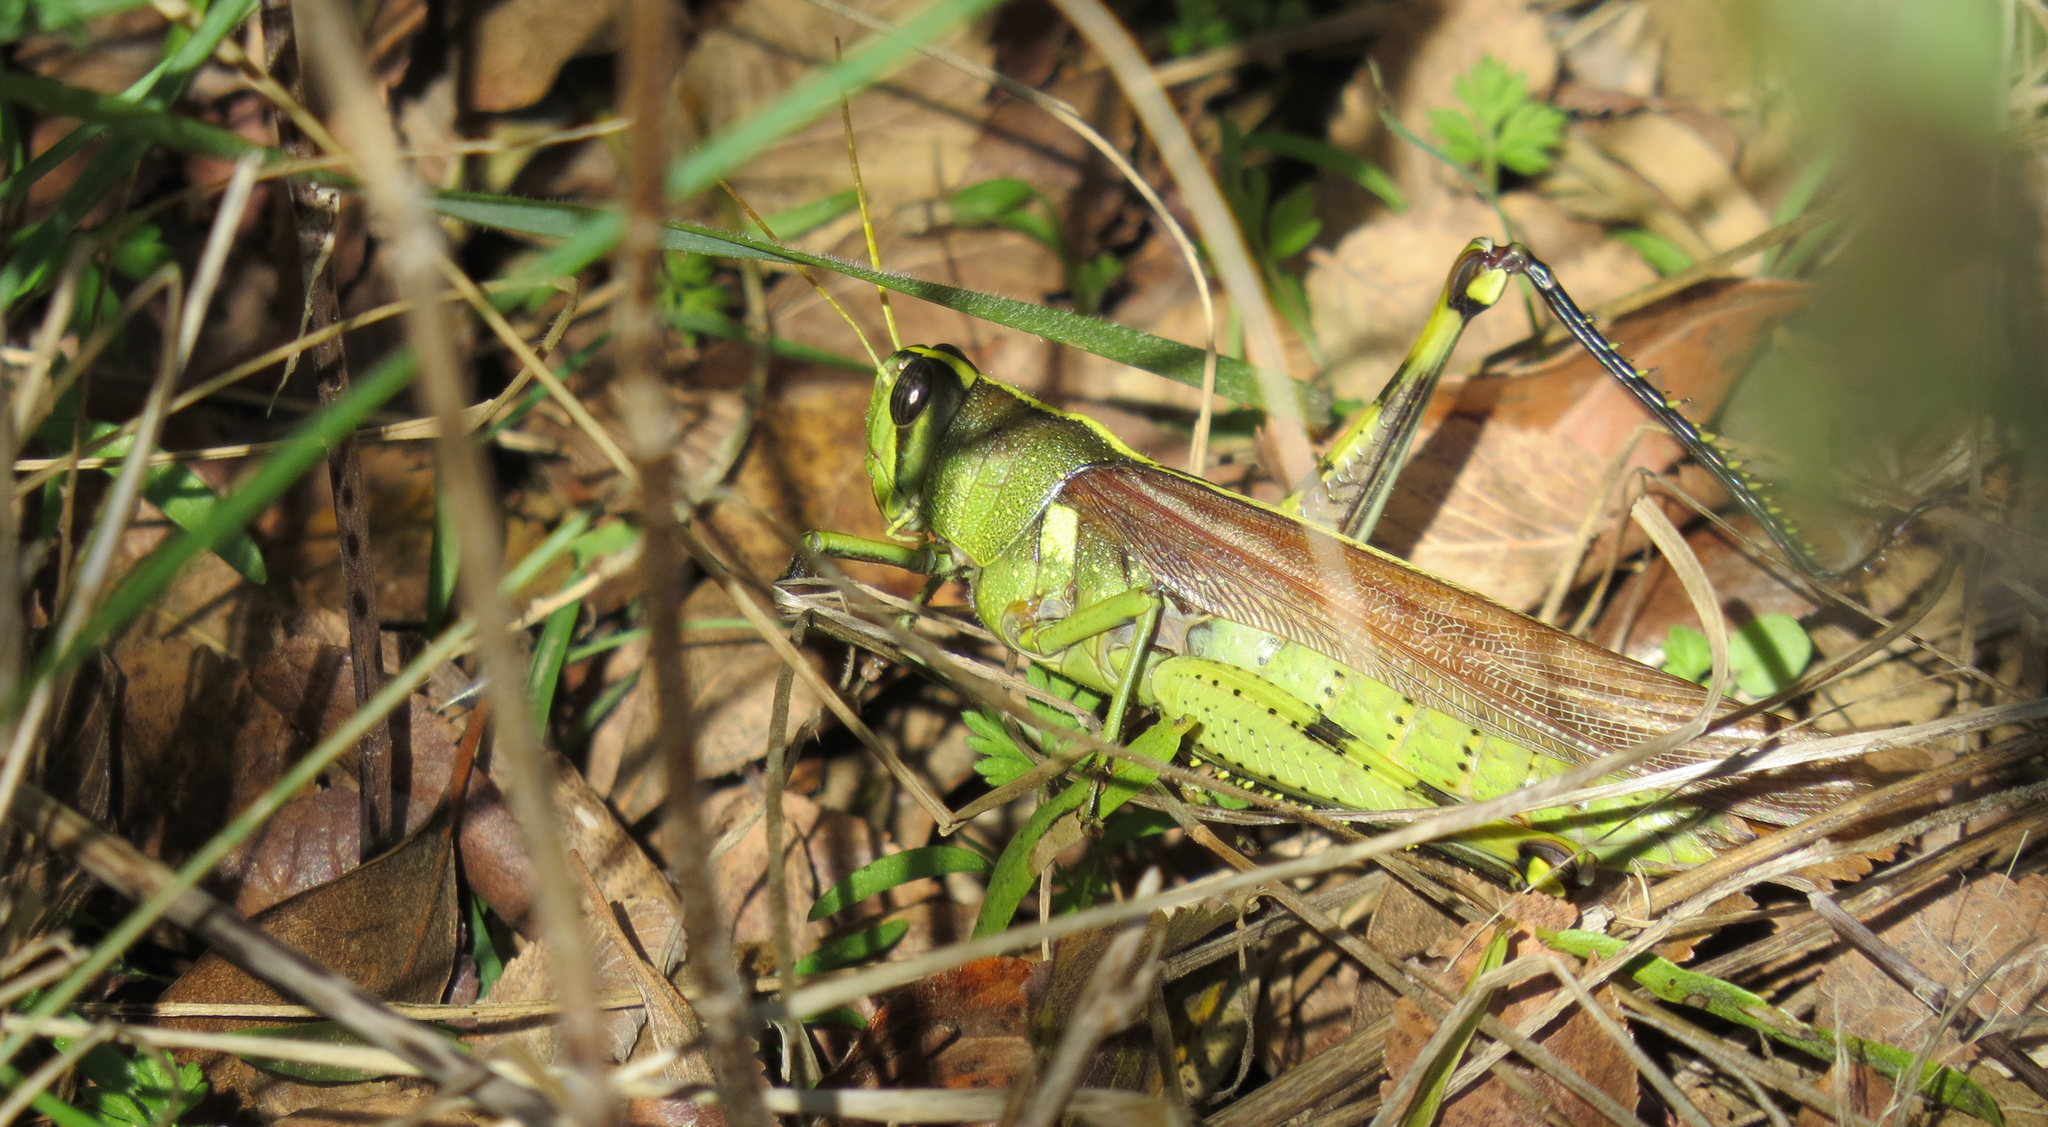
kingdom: Animalia
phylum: Arthropoda
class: Insecta
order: Orthoptera
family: Acrididae
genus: Schistocerca
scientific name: Schistocerca obscura
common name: Obscure bird grasshopper
